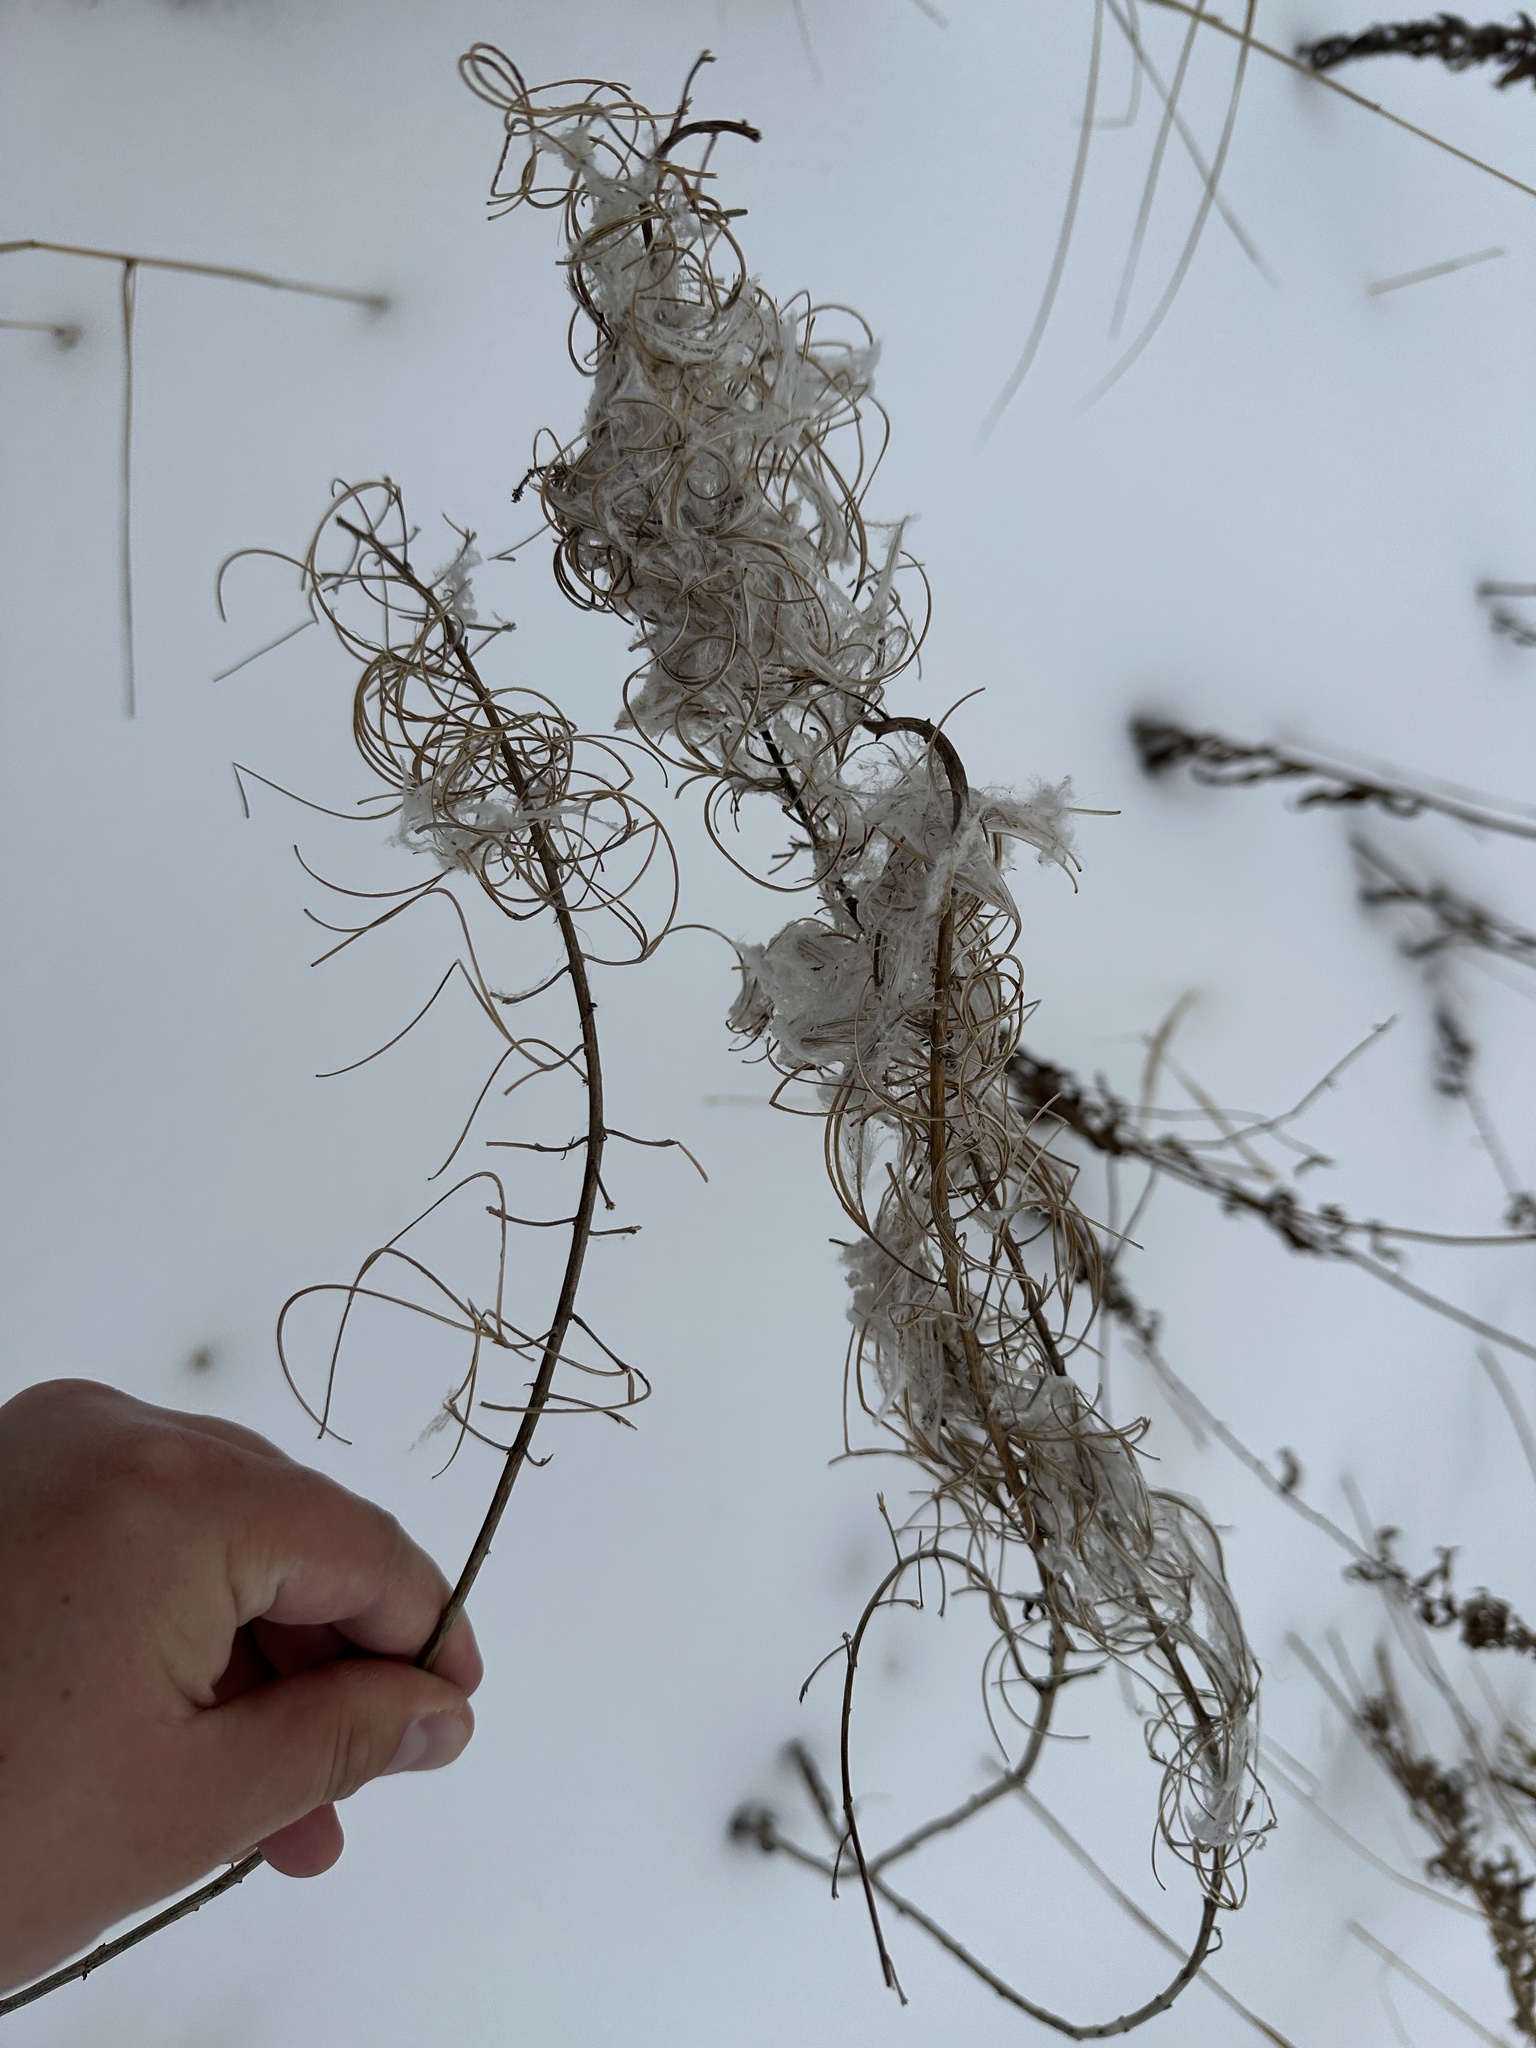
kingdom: Plantae
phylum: Tracheophyta
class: Magnoliopsida
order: Myrtales
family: Onagraceae
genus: Chamaenerion
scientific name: Chamaenerion angustifolium
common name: Fireweed
